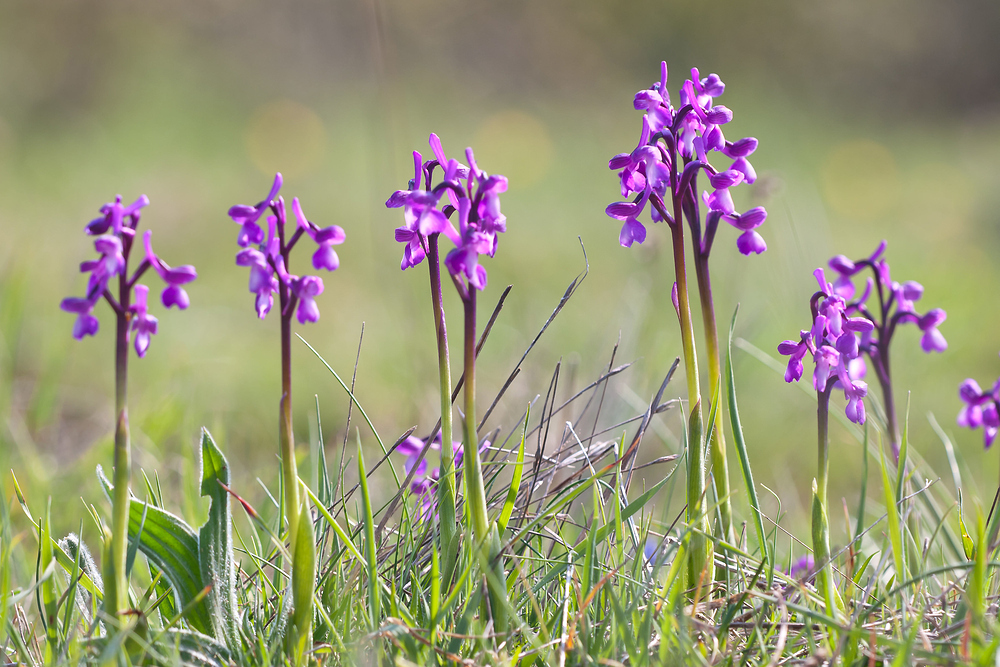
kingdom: Plantae
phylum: Tracheophyta
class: Liliopsida
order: Asparagales
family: Orchidaceae
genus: Anacamptis
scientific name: Anacamptis morio
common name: Green-winged orchid
